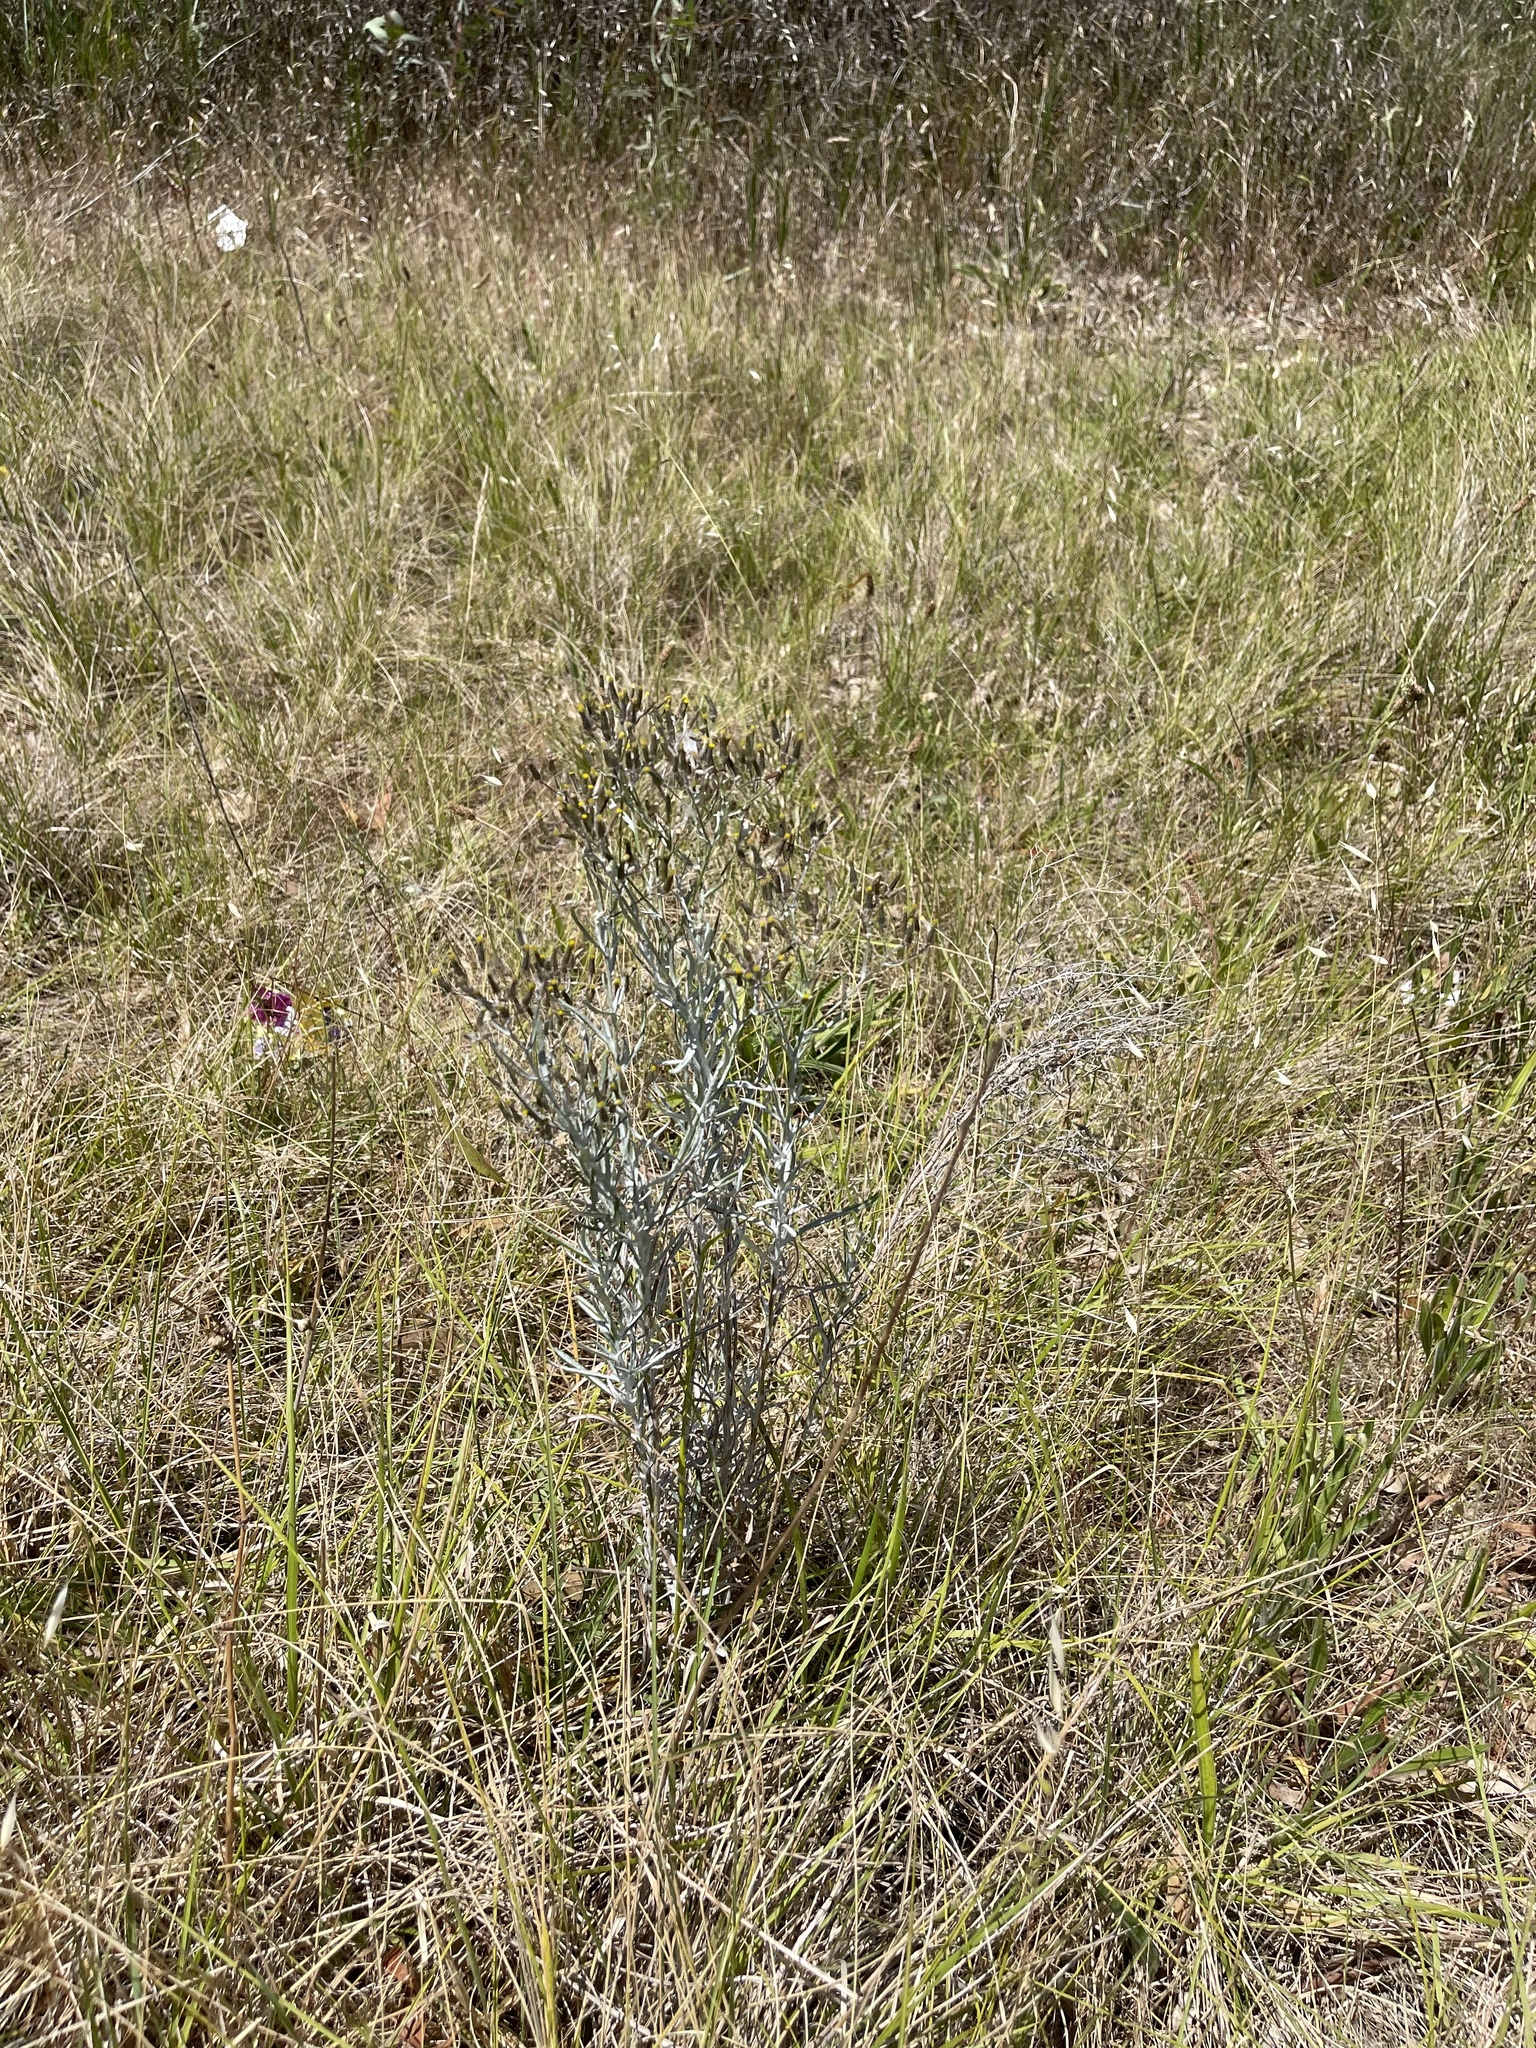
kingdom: Plantae
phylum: Tracheophyta
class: Magnoliopsida
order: Asterales
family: Asteraceae
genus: Senecio
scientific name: Senecio quadridentatus
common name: Cotton fireweed
